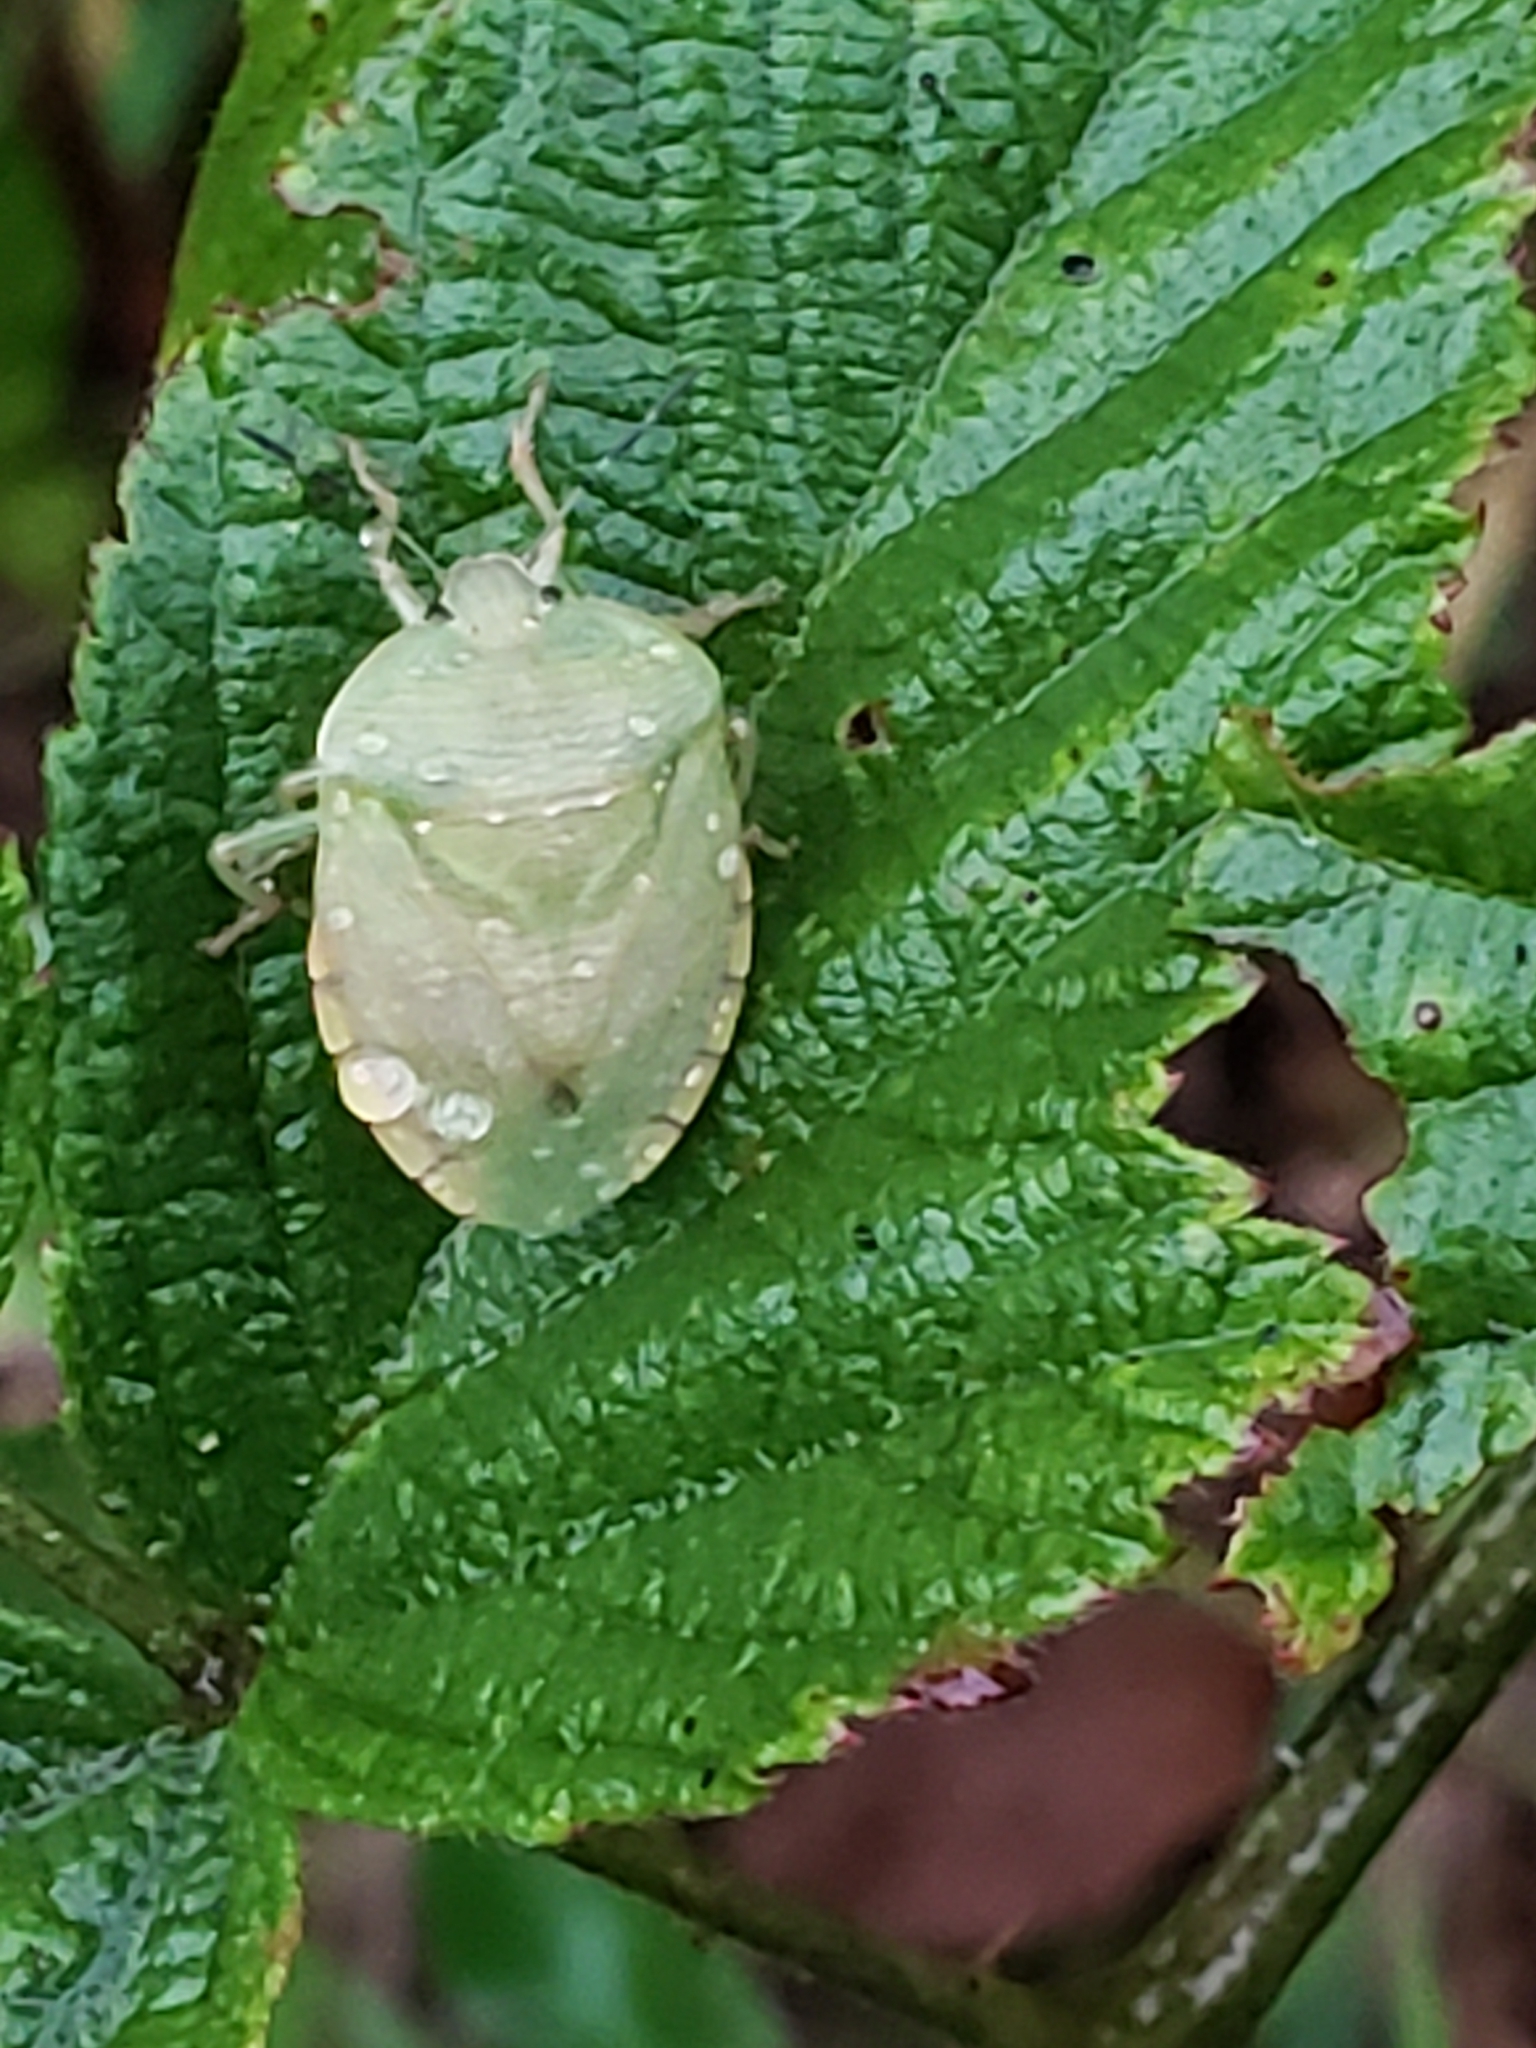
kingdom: Animalia
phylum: Arthropoda
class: Insecta
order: Hemiptera
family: Pentatomidae
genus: Chinavia
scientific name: Chinavia
